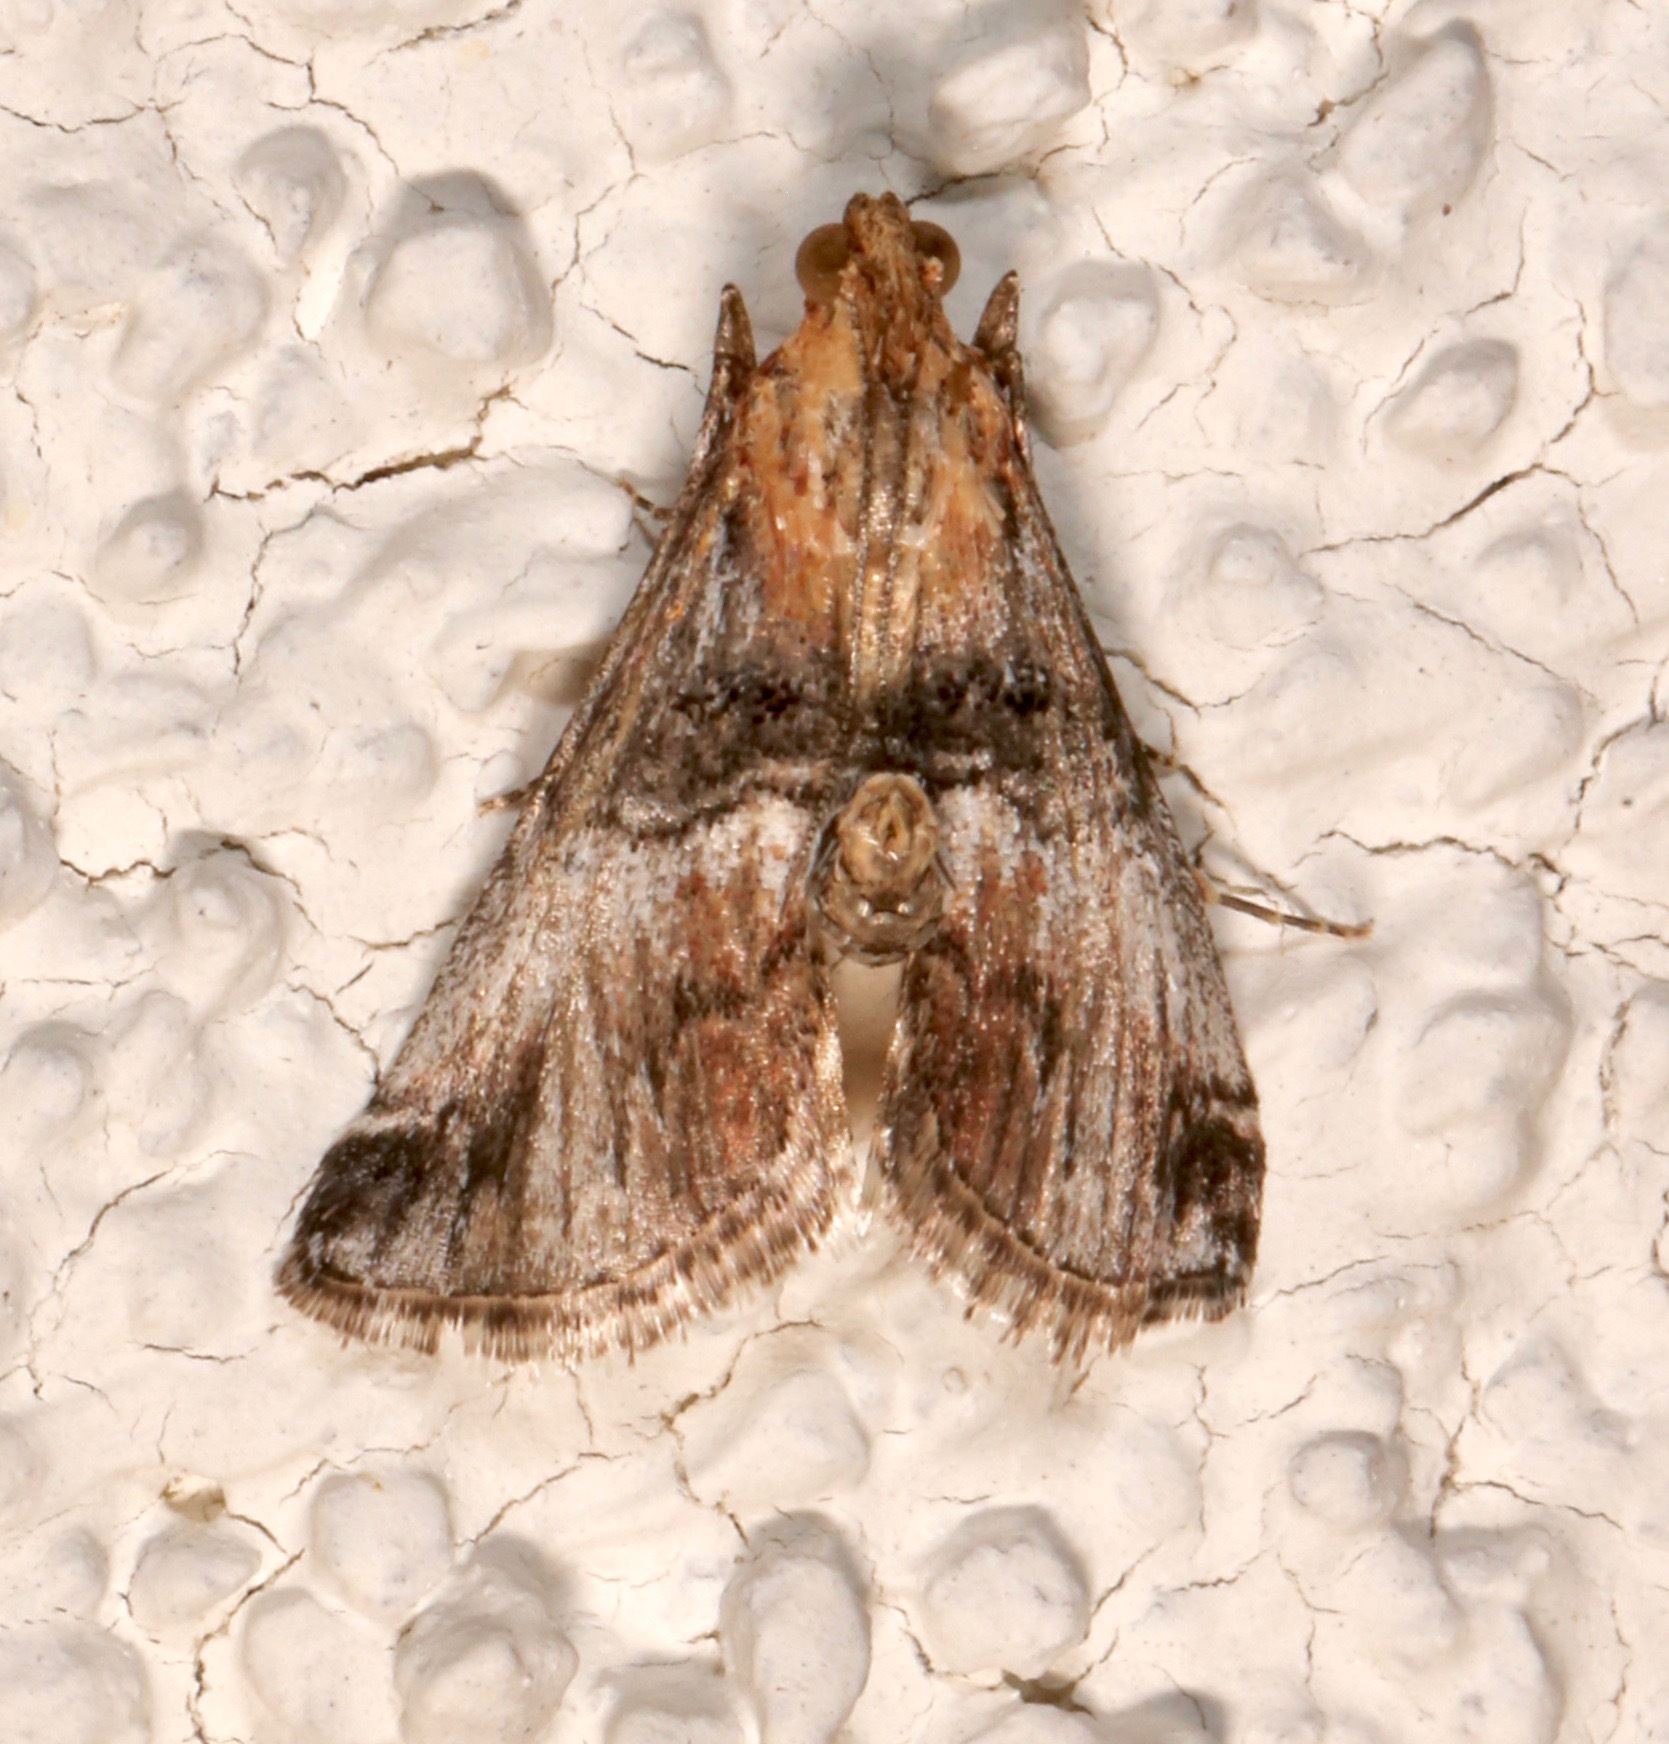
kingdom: Animalia
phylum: Arthropoda
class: Insecta
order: Lepidoptera
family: Pyralidae
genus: Toripalpus
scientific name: Toripalpus trabalis
